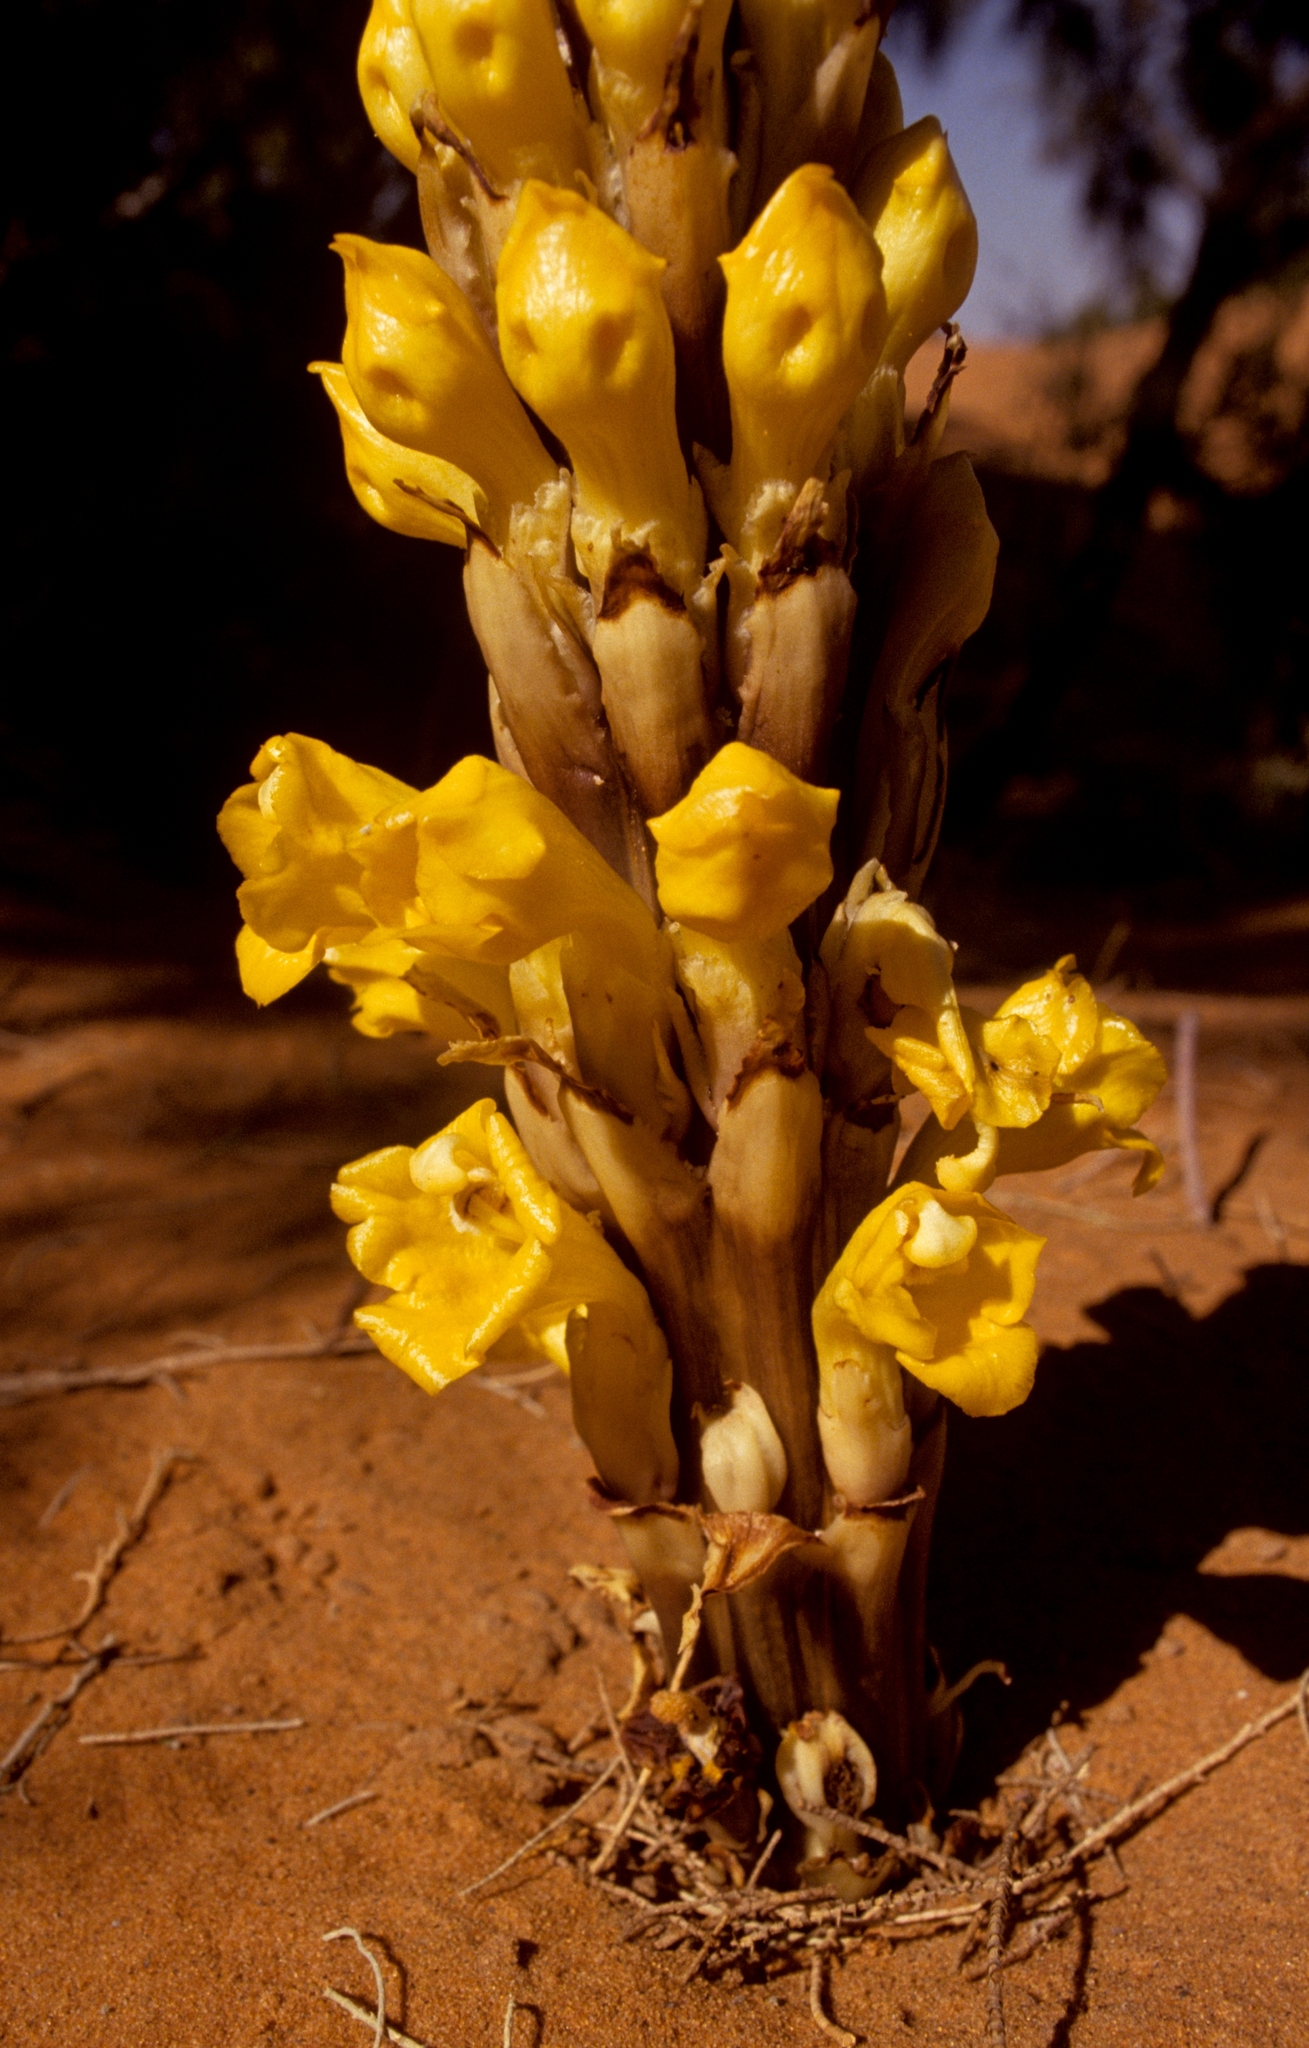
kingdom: Plantae
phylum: Tracheophyta
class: Magnoliopsida
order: Lamiales
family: Orobanchaceae
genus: Cistanche
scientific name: Cistanche
